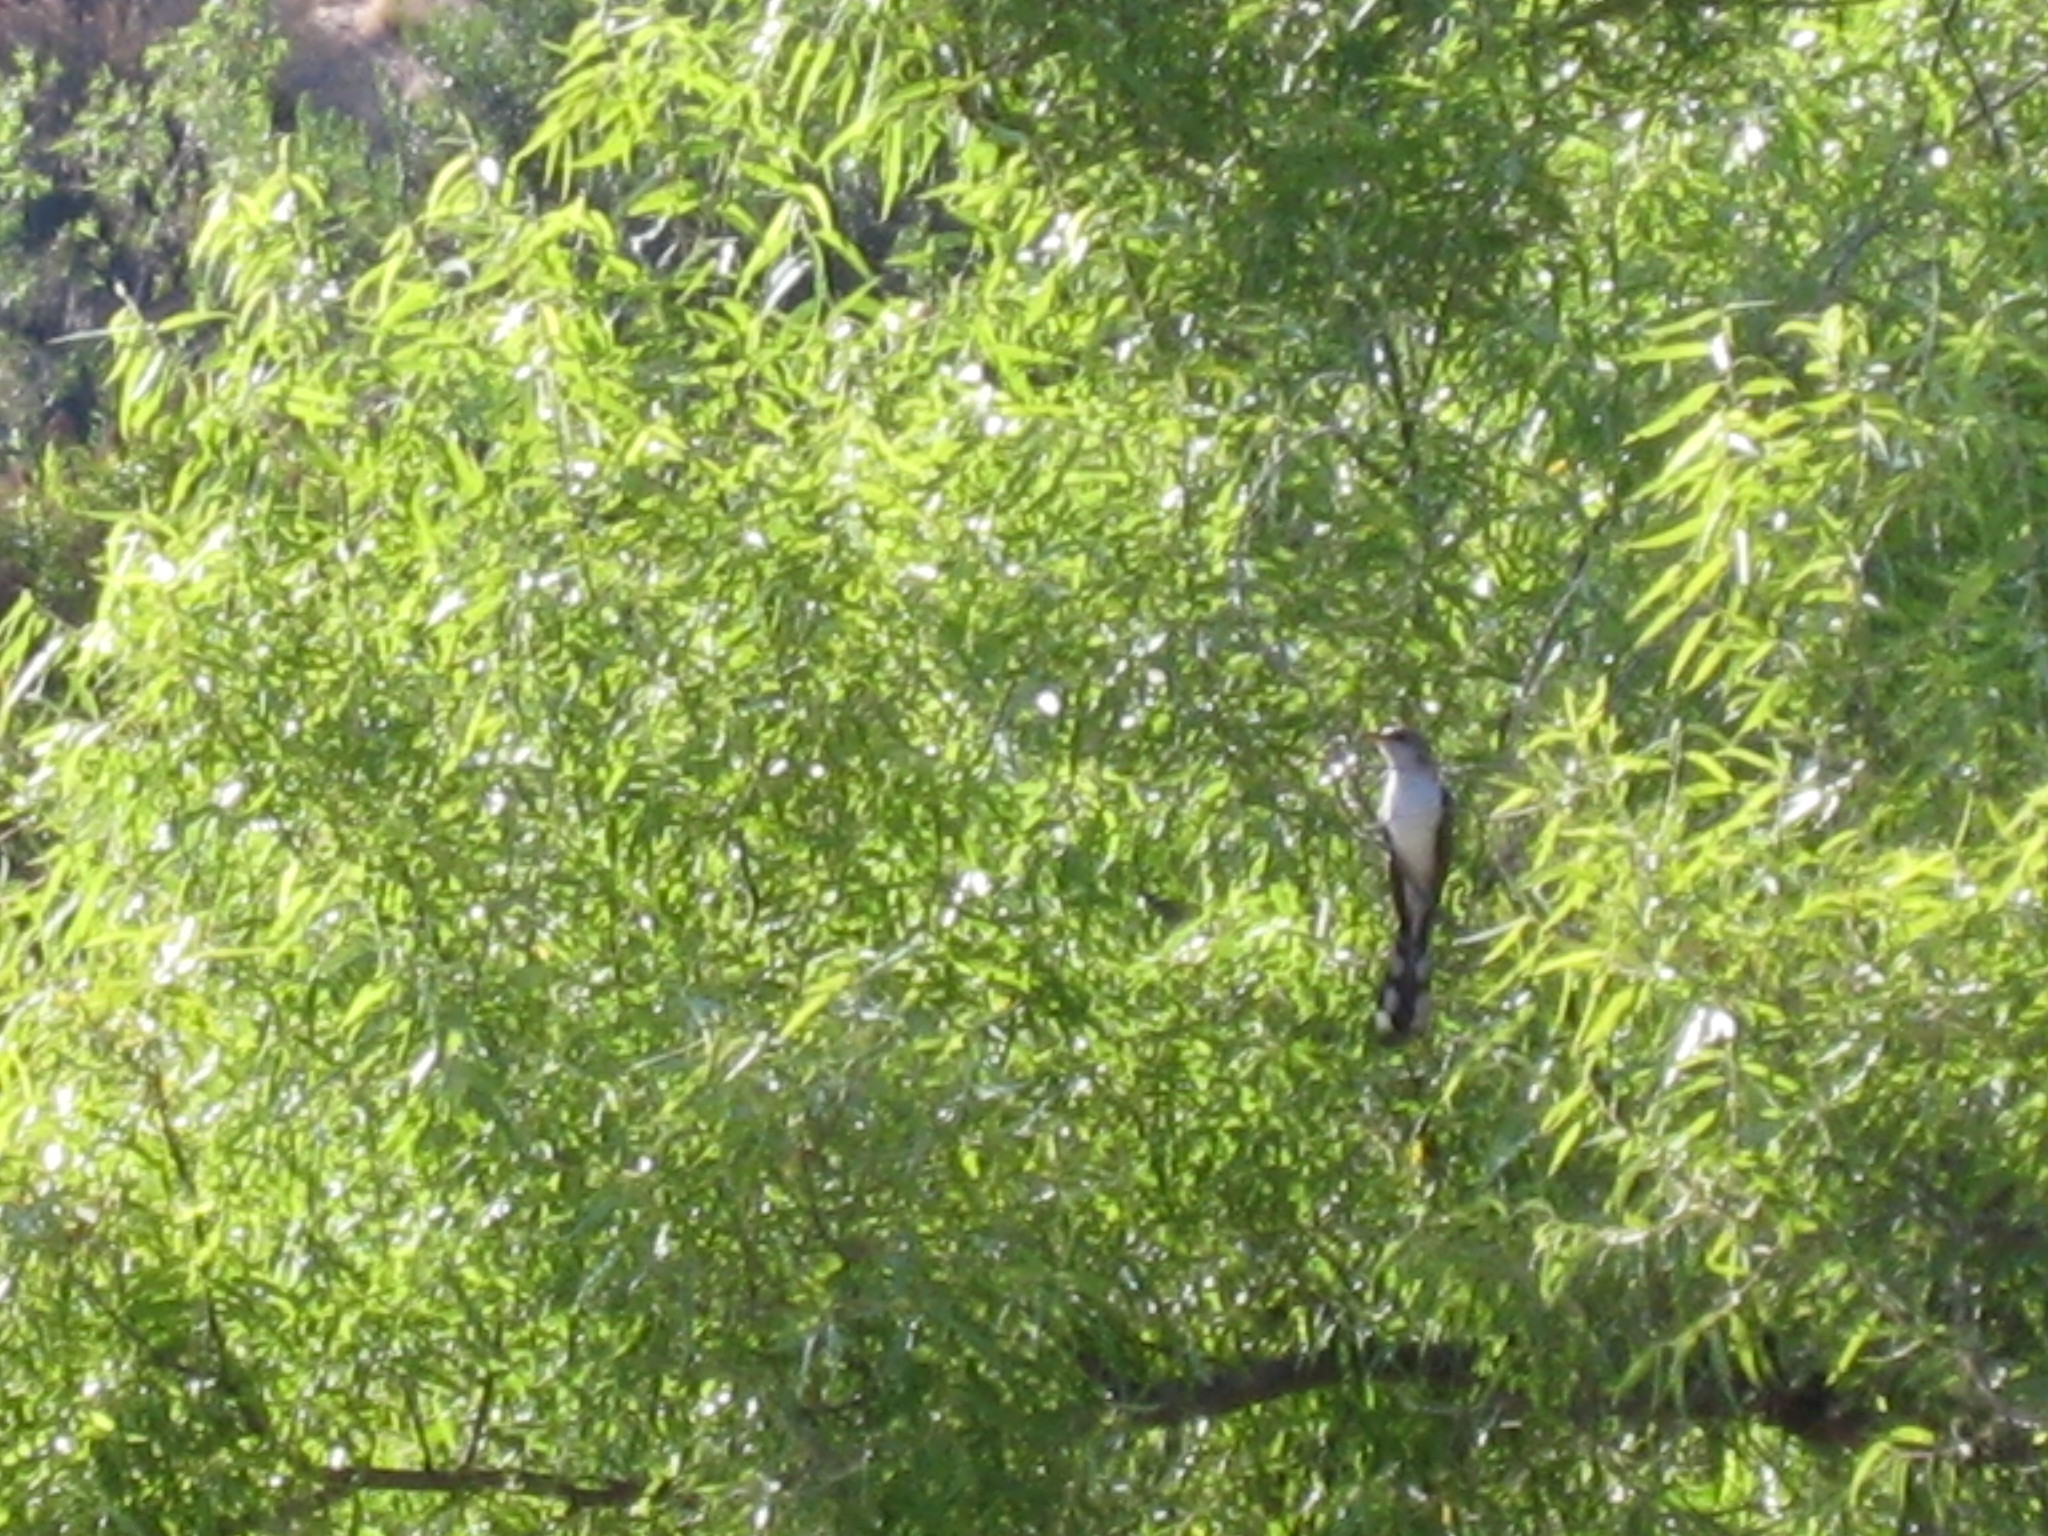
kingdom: Animalia
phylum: Chordata
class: Aves
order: Cuculiformes
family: Cuculidae
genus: Coccyzus
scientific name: Coccyzus americanus
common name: Yellow-billed cuckoo
